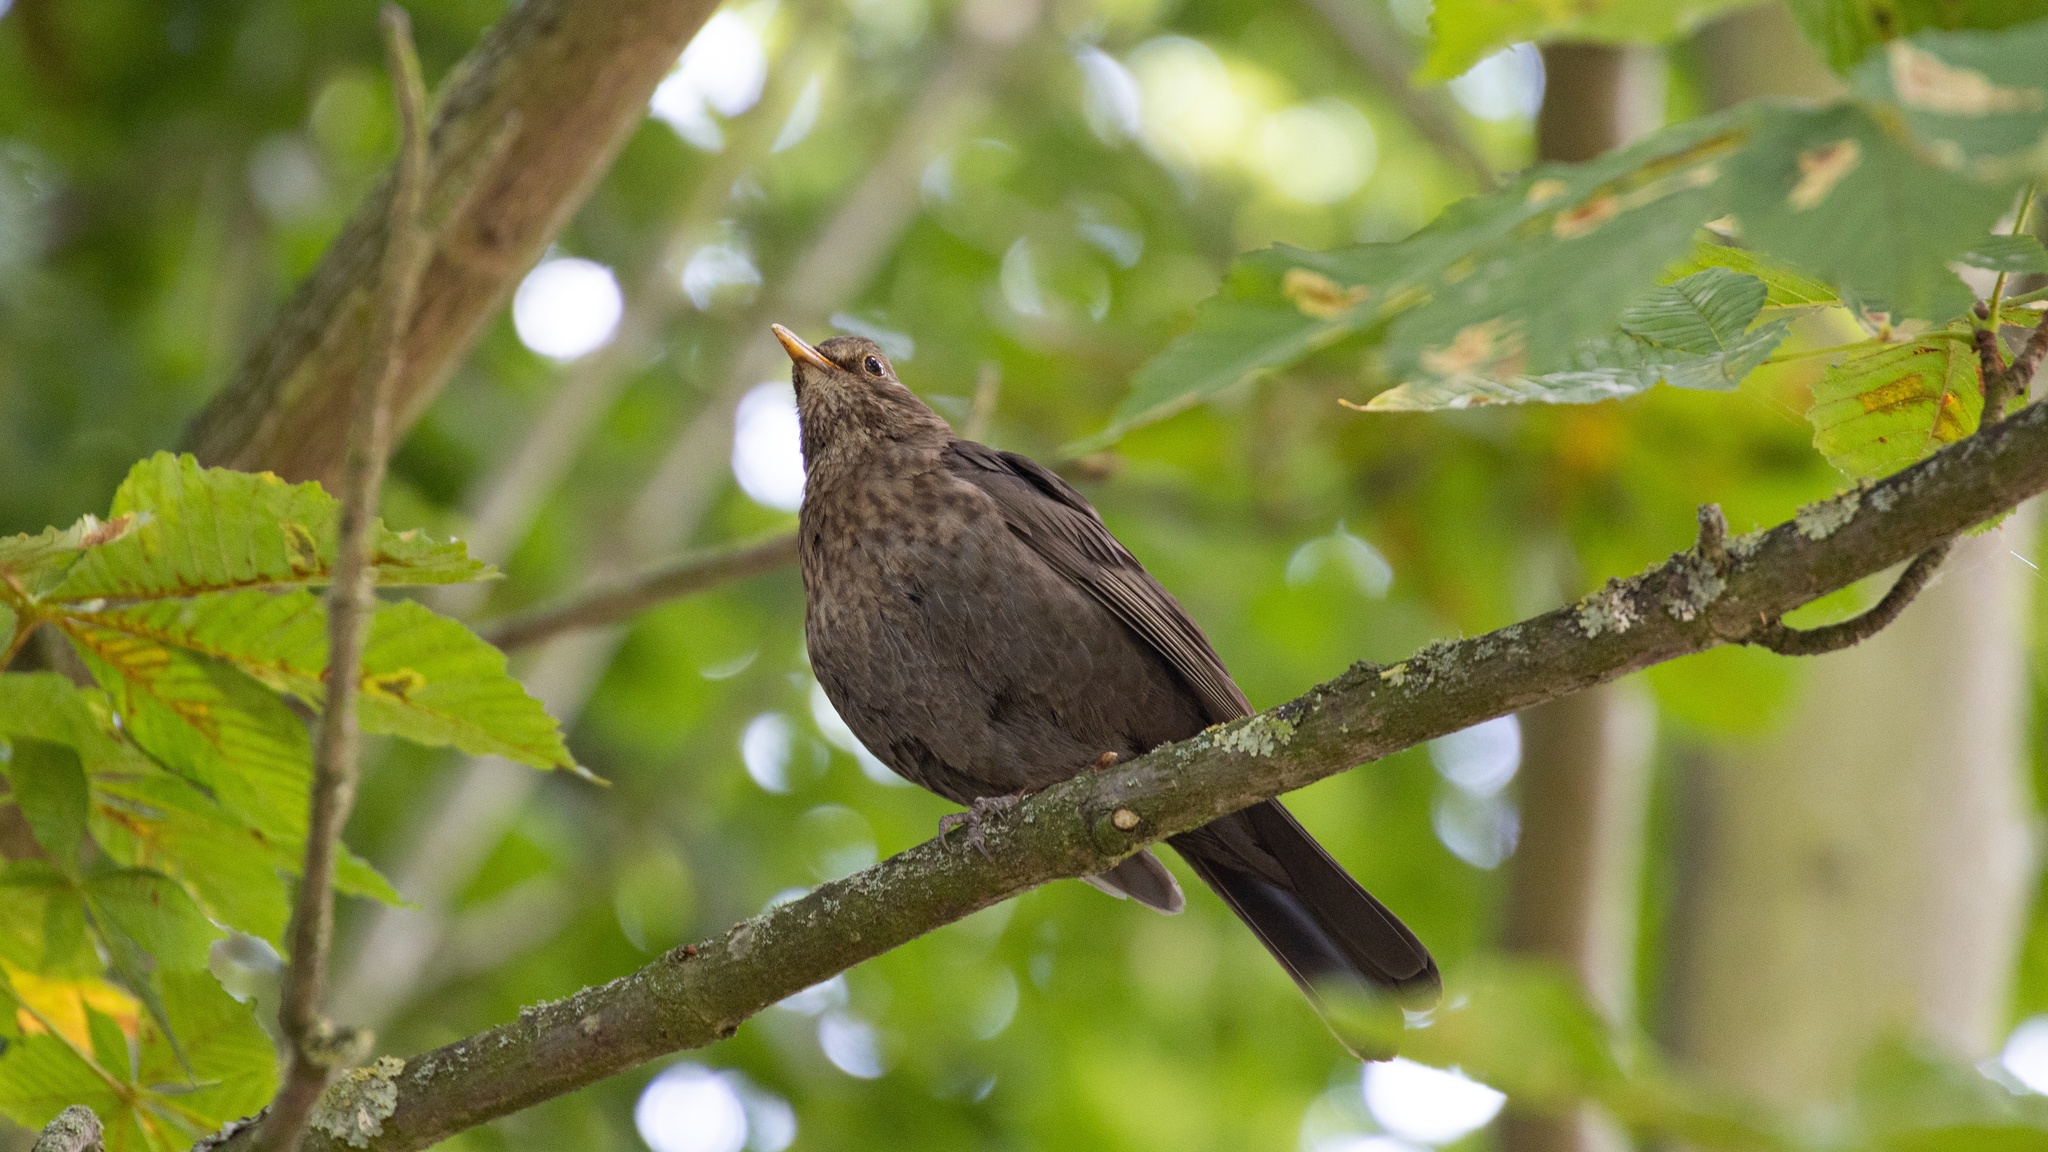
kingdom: Animalia
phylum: Chordata
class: Aves
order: Passeriformes
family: Turdidae
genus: Turdus
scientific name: Turdus merula
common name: Common blackbird
